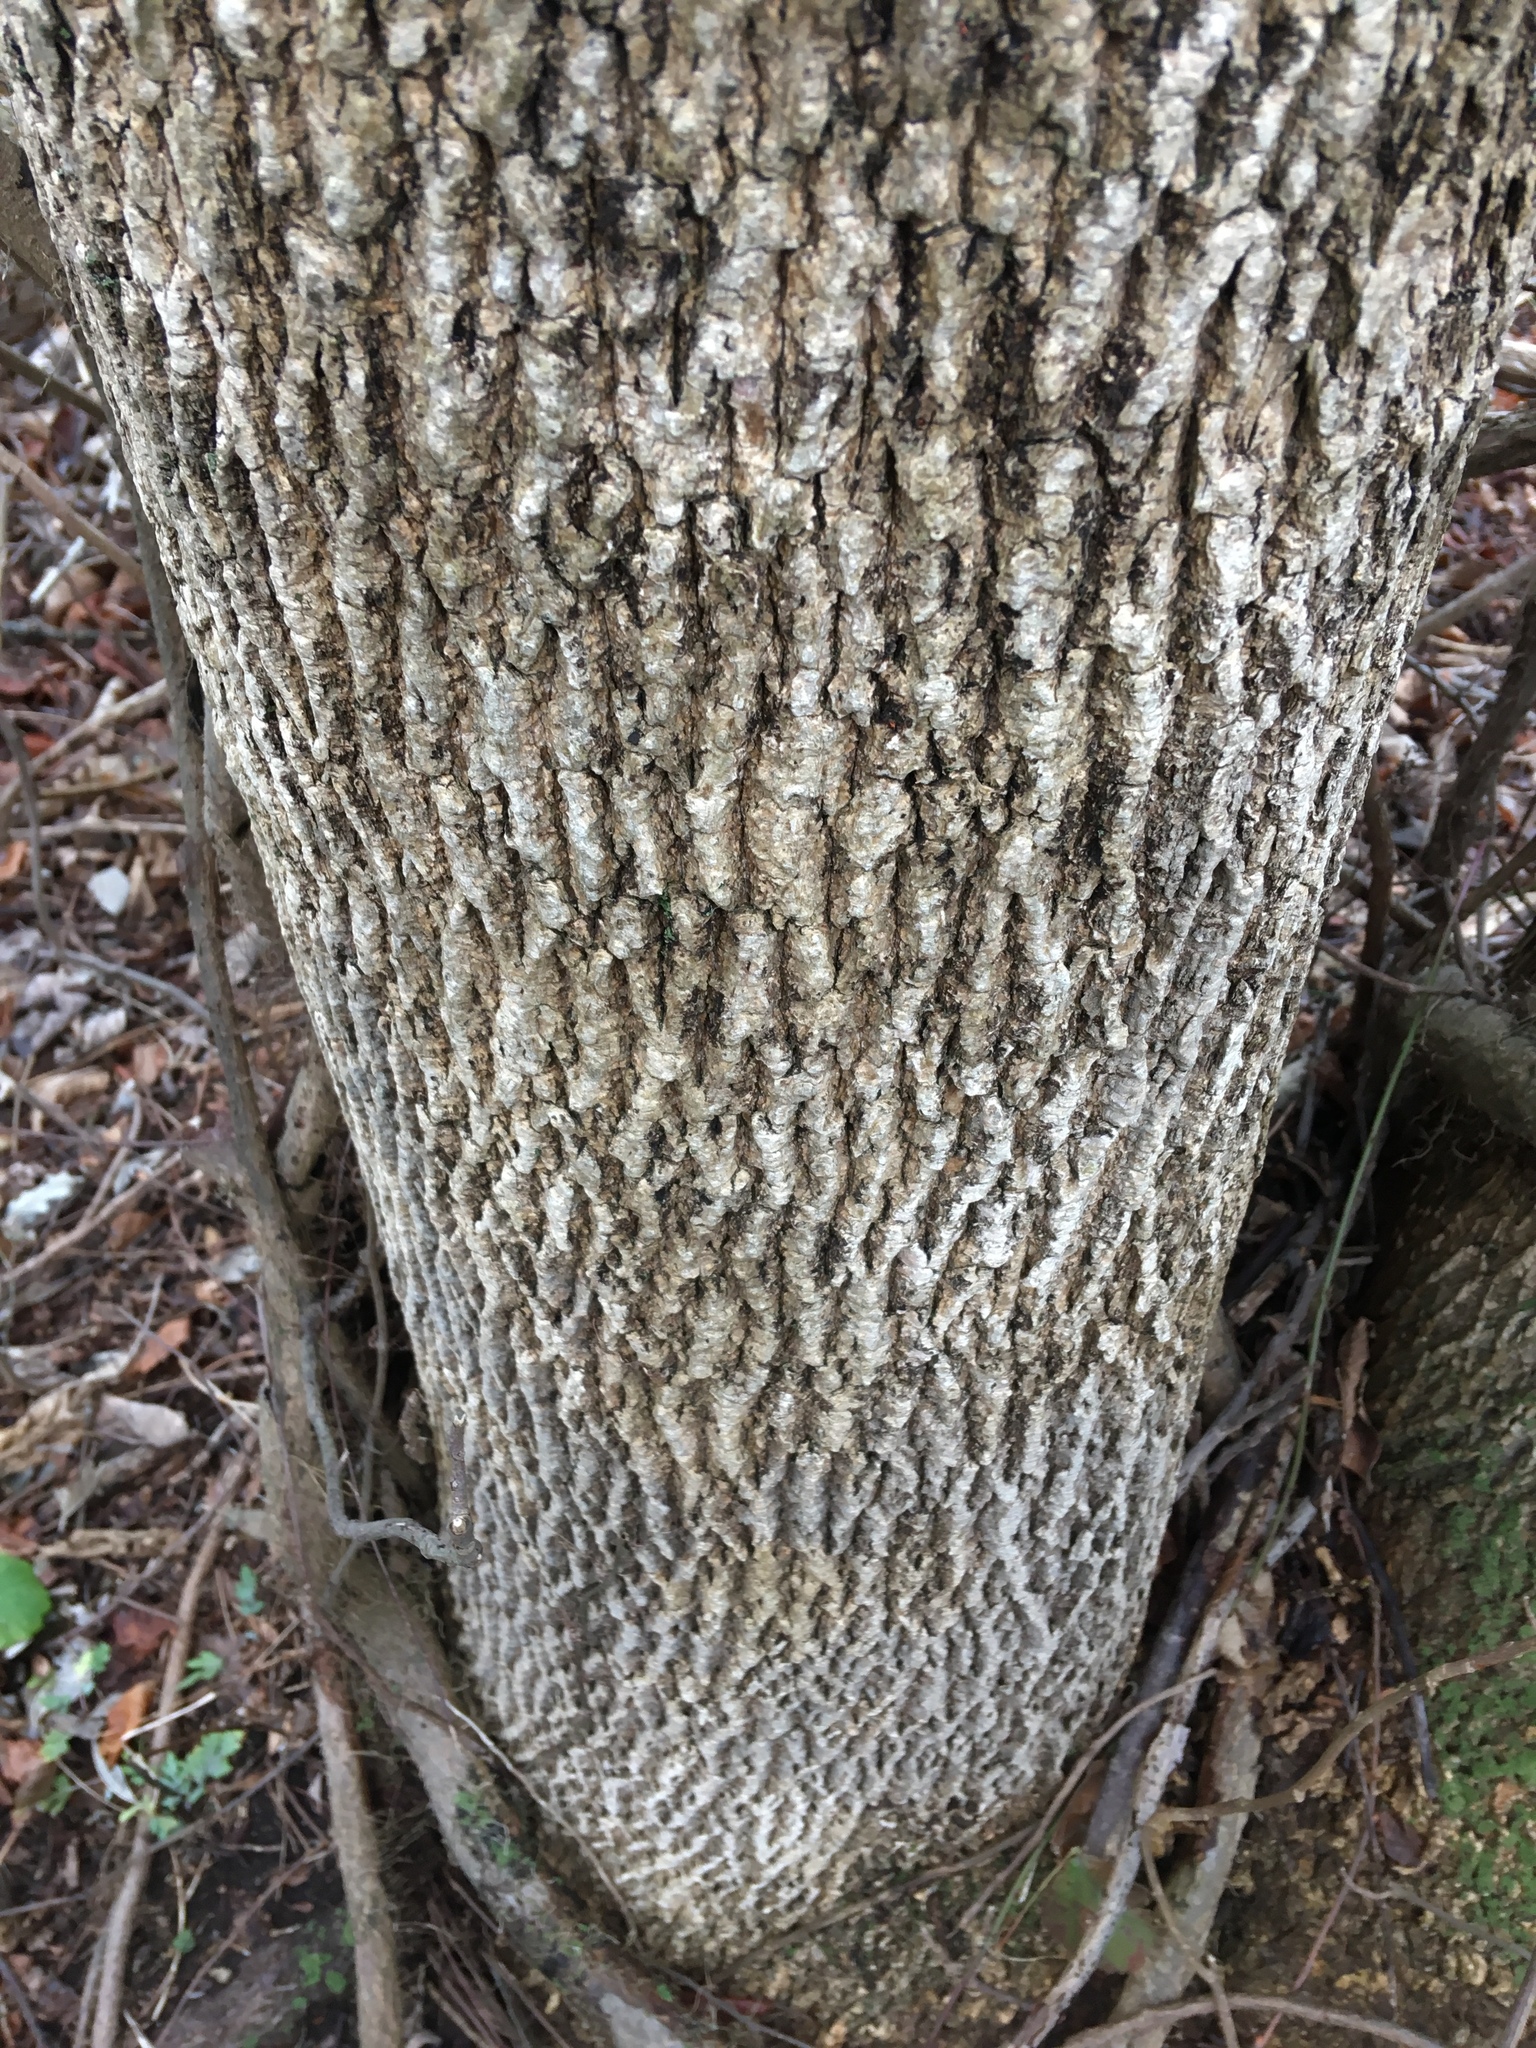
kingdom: Plantae
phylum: Tracheophyta
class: Magnoliopsida
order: Lamiales
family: Oleaceae
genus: Fraxinus
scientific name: Fraxinus pennsylvanica
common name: Green ash
